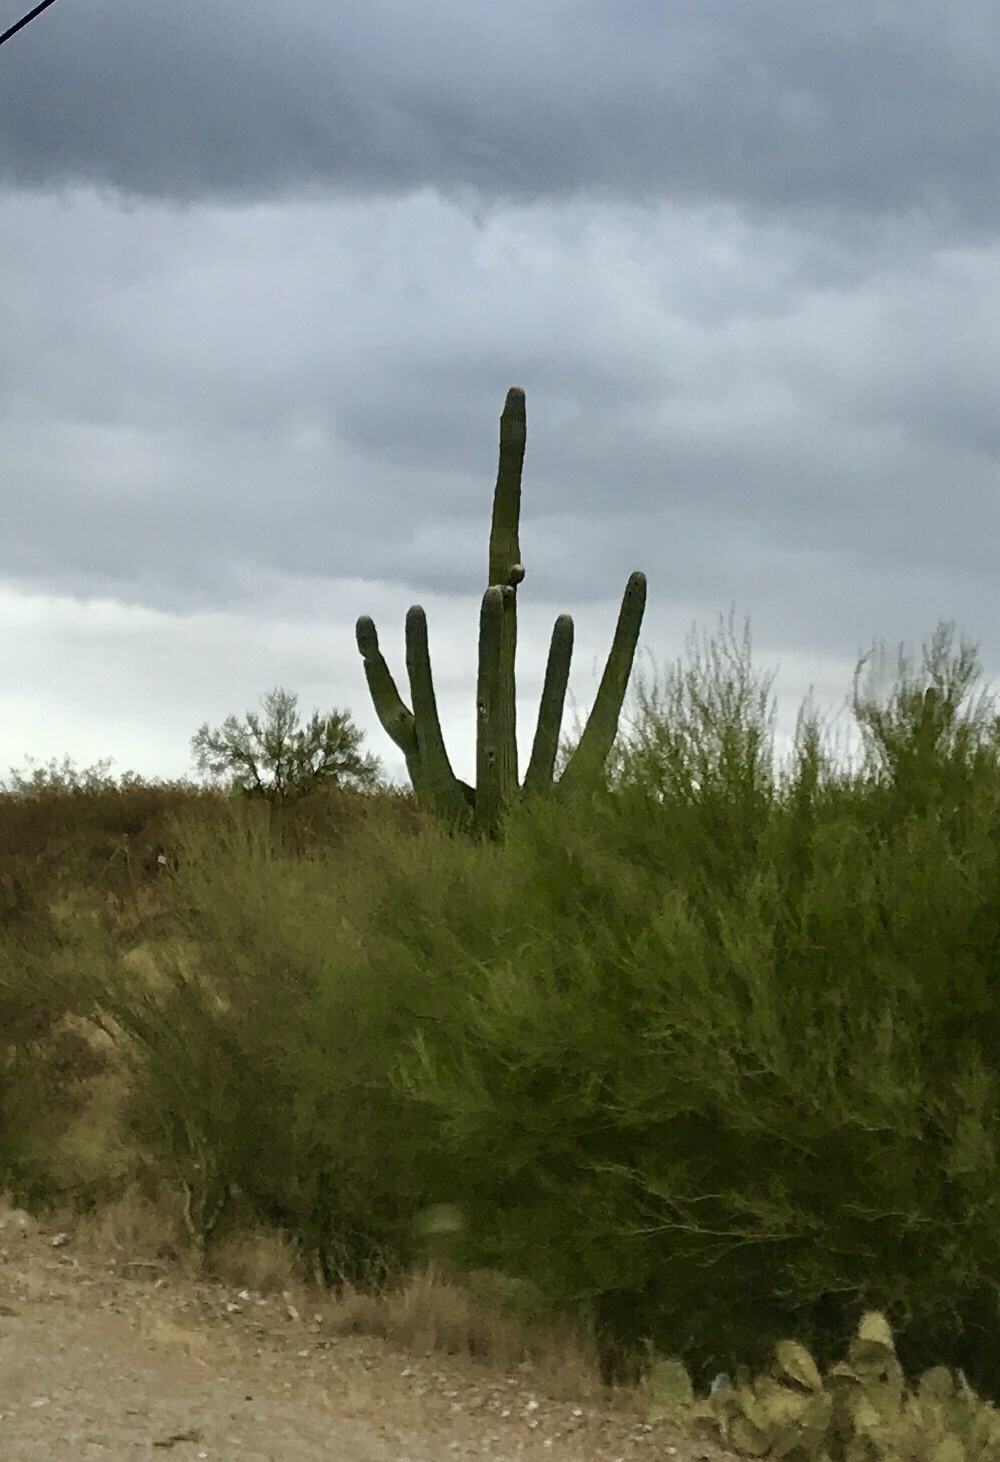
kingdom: Plantae
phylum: Tracheophyta
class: Magnoliopsida
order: Fabales
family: Fabaceae
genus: Parkinsonia
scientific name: Parkinsonia microphylla
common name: Yellow paloverde
